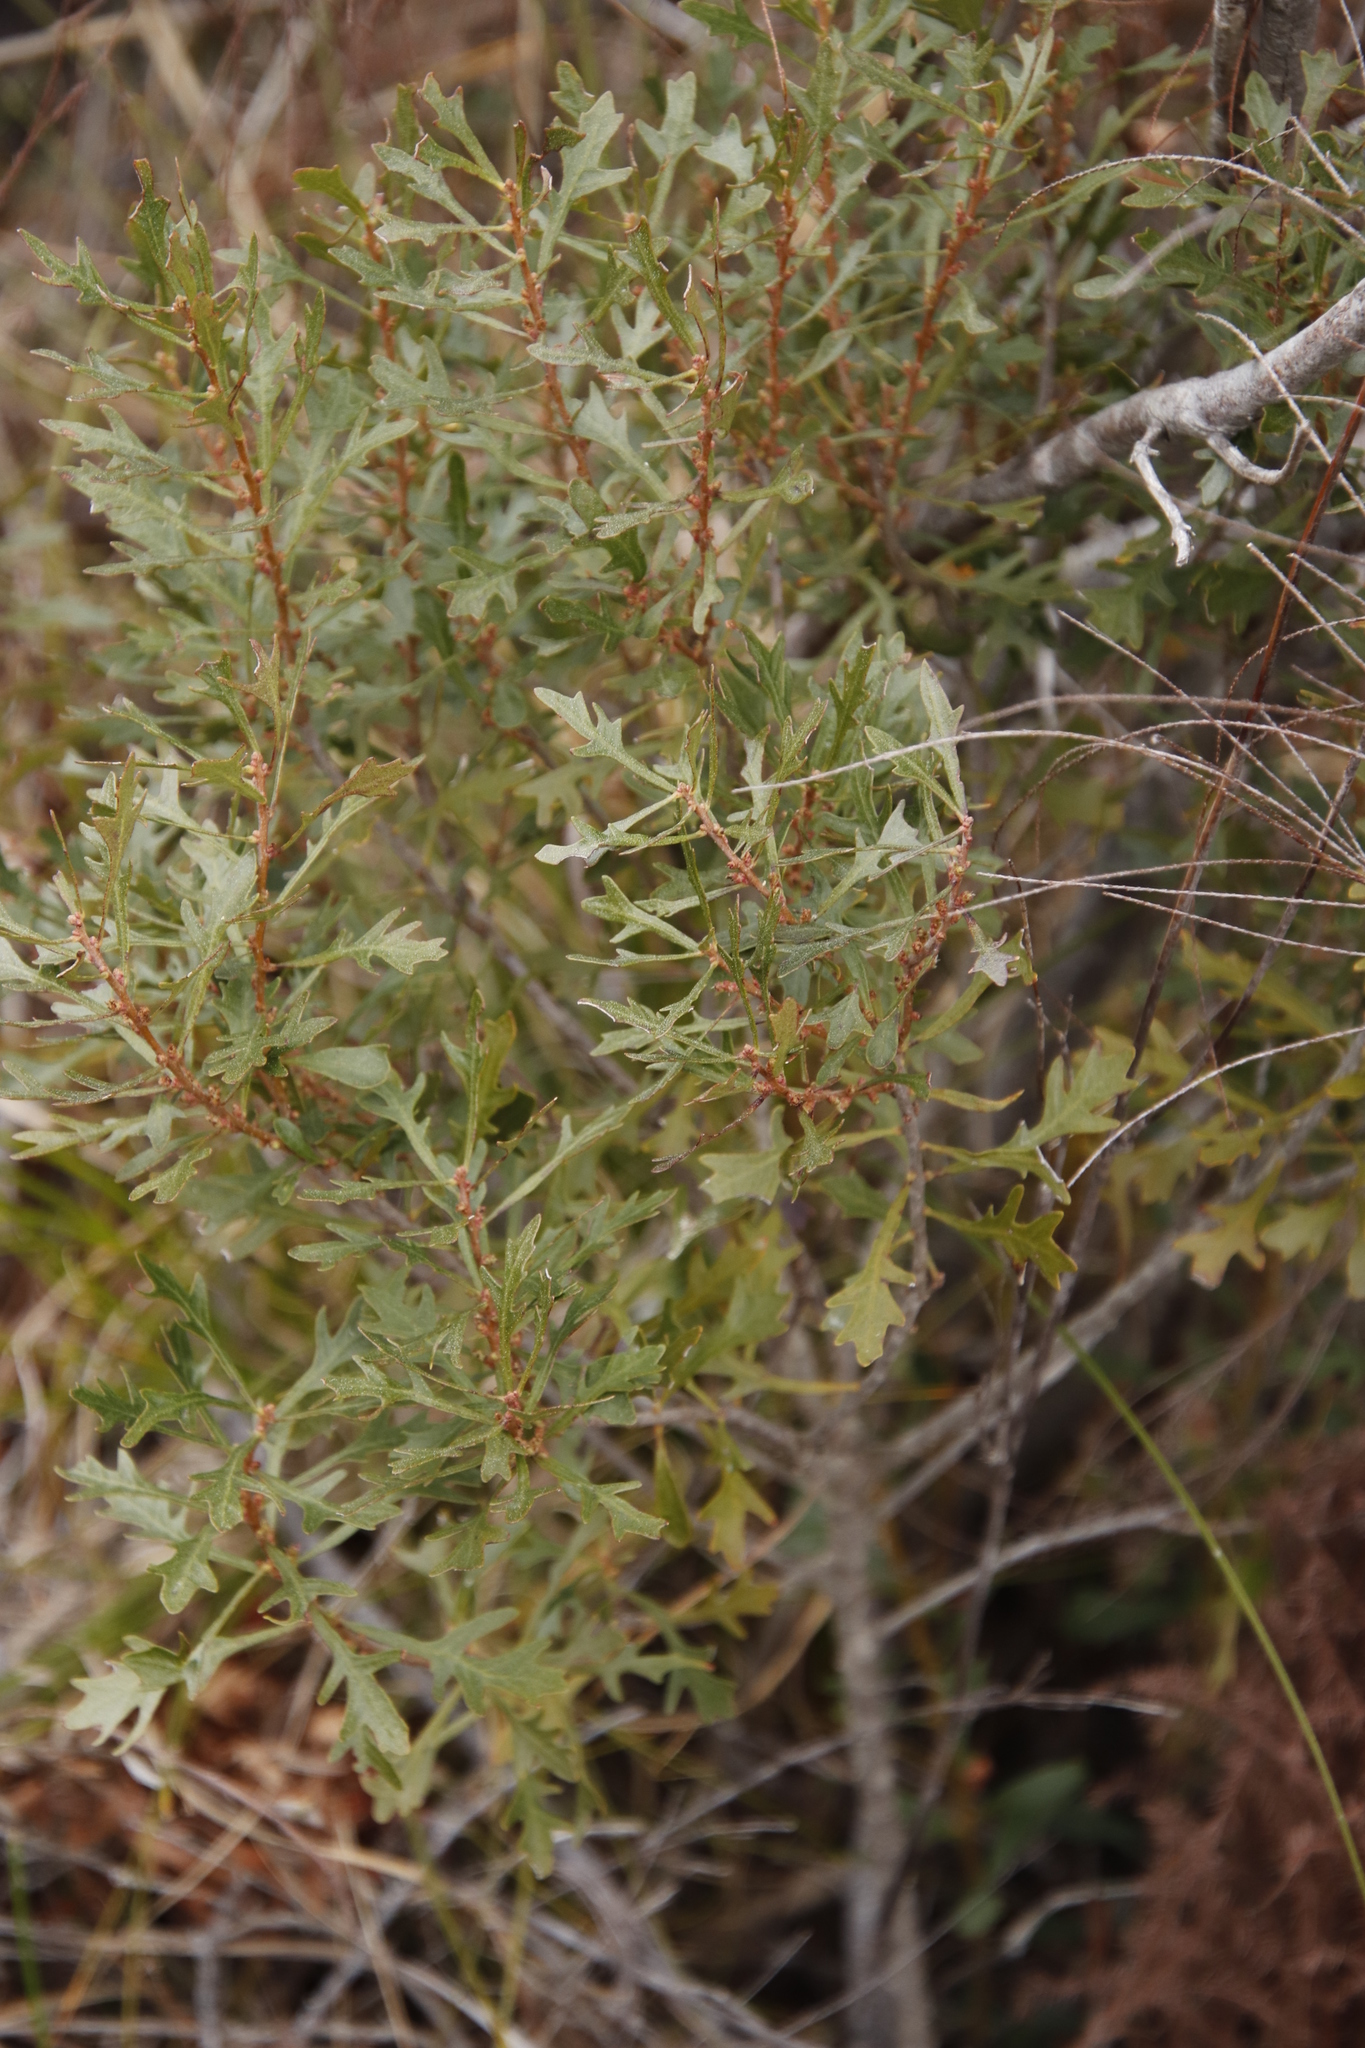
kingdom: Plantae
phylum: Tracheophyta
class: Magnoliopsida
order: Fagales
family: Myricaceae
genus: Morella
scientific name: Morella quercifolia
